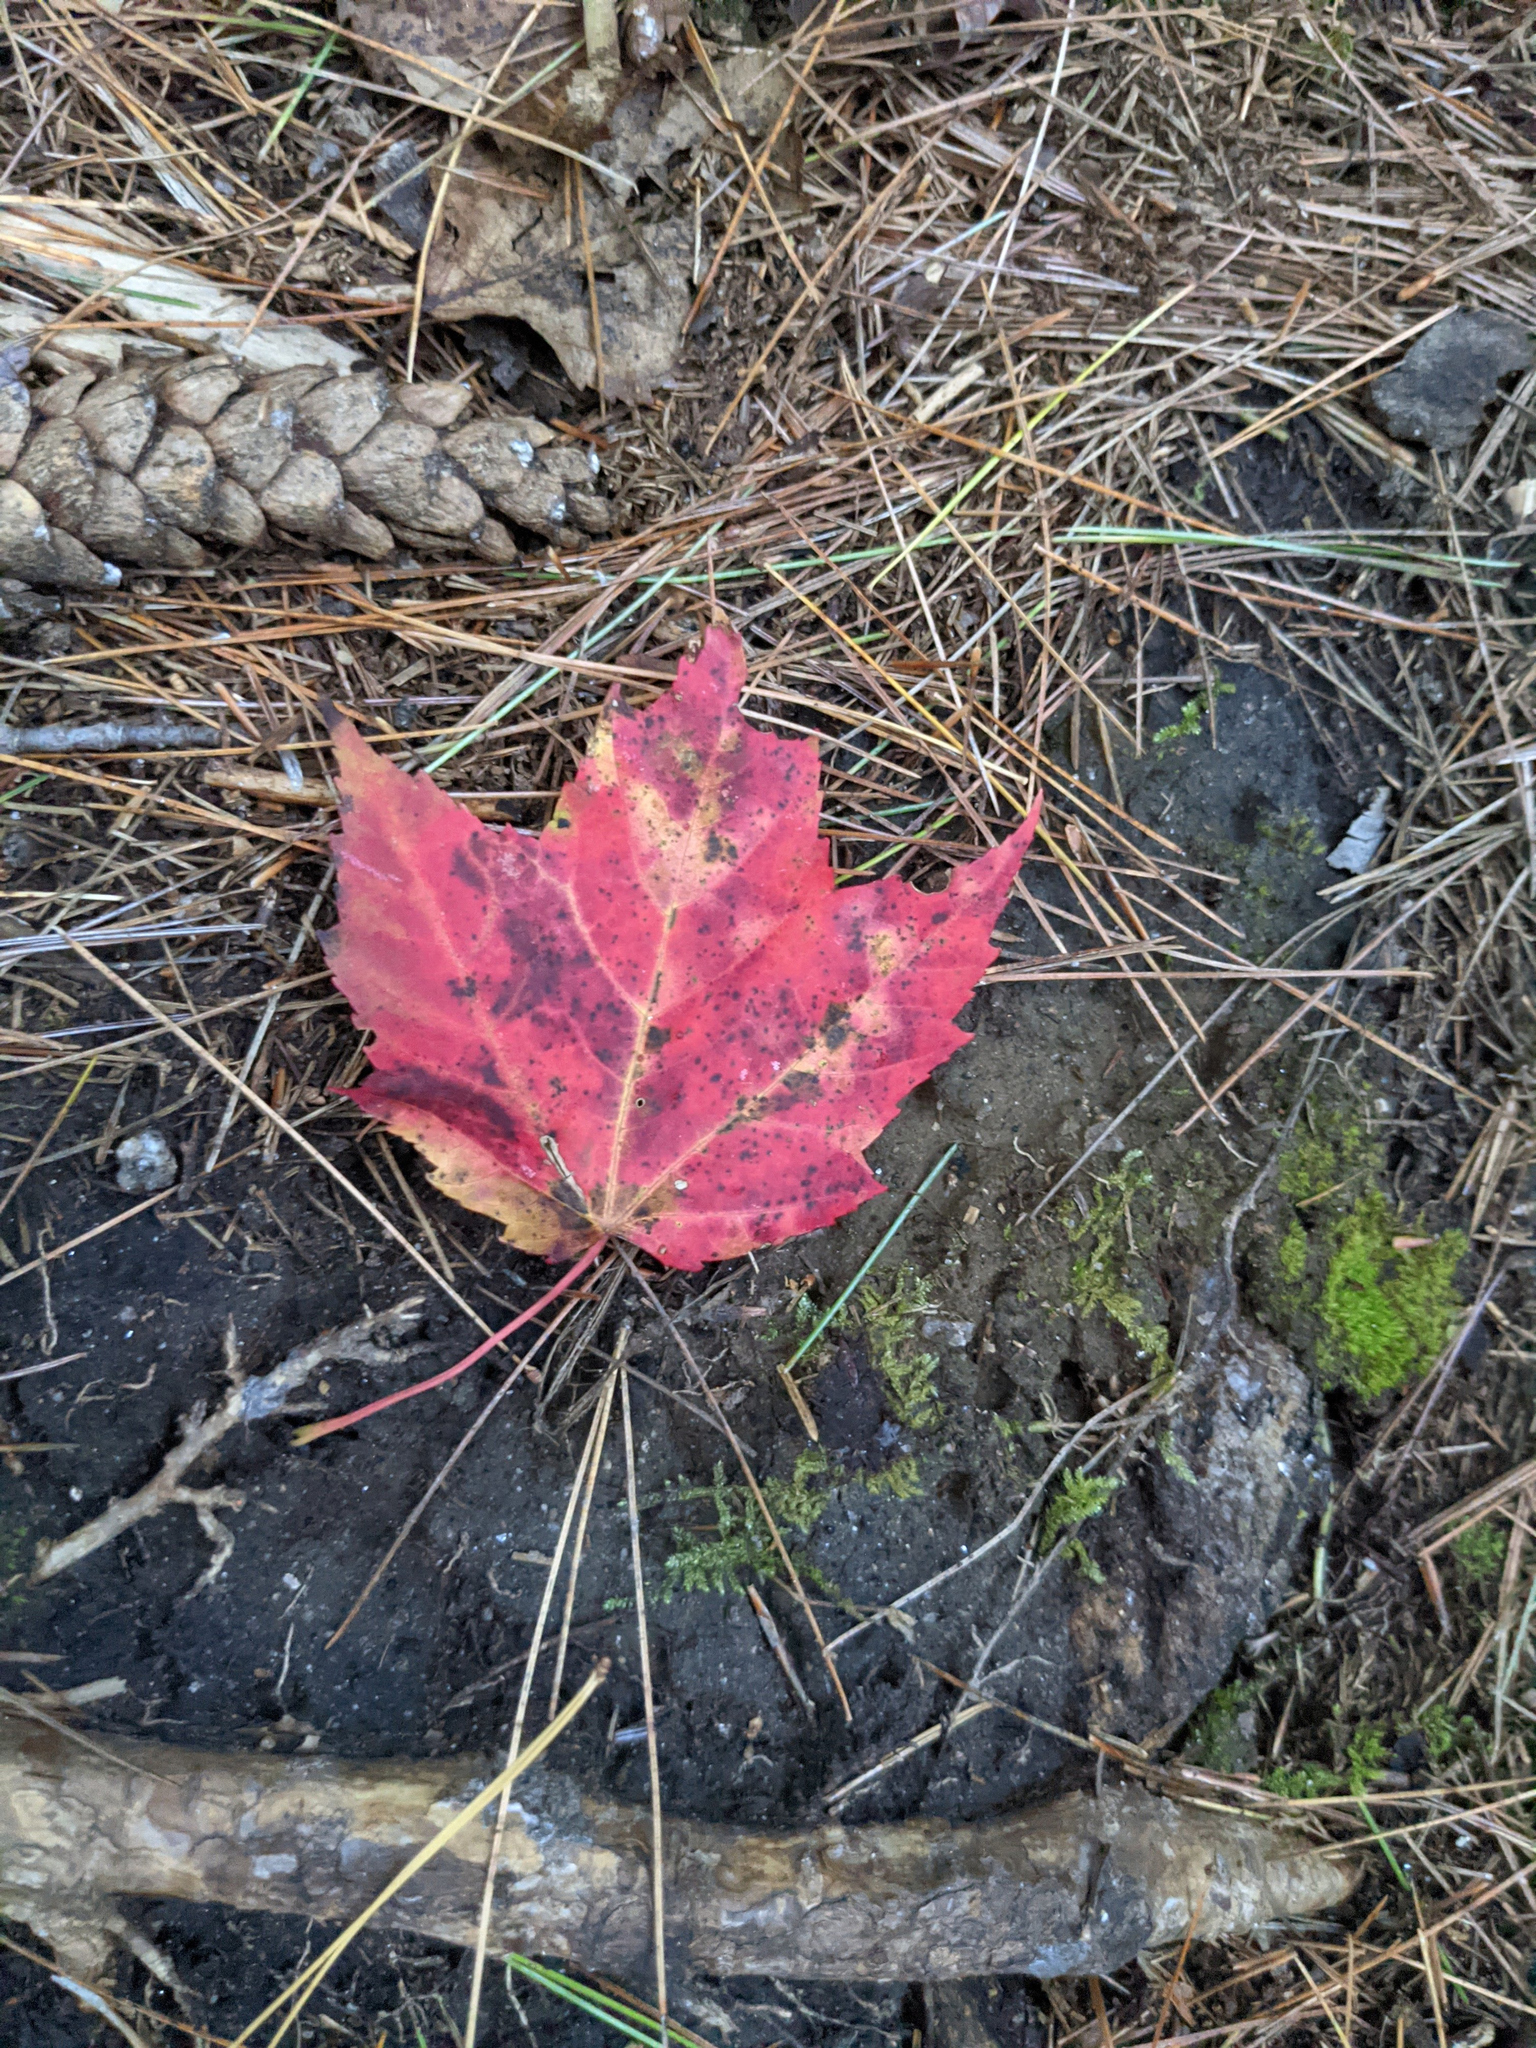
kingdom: Plantae
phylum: Tracheophyta
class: Magnoliopsida
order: Sapindales
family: Sapindaceae
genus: Acer
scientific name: Acer rubrum
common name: Red maple
